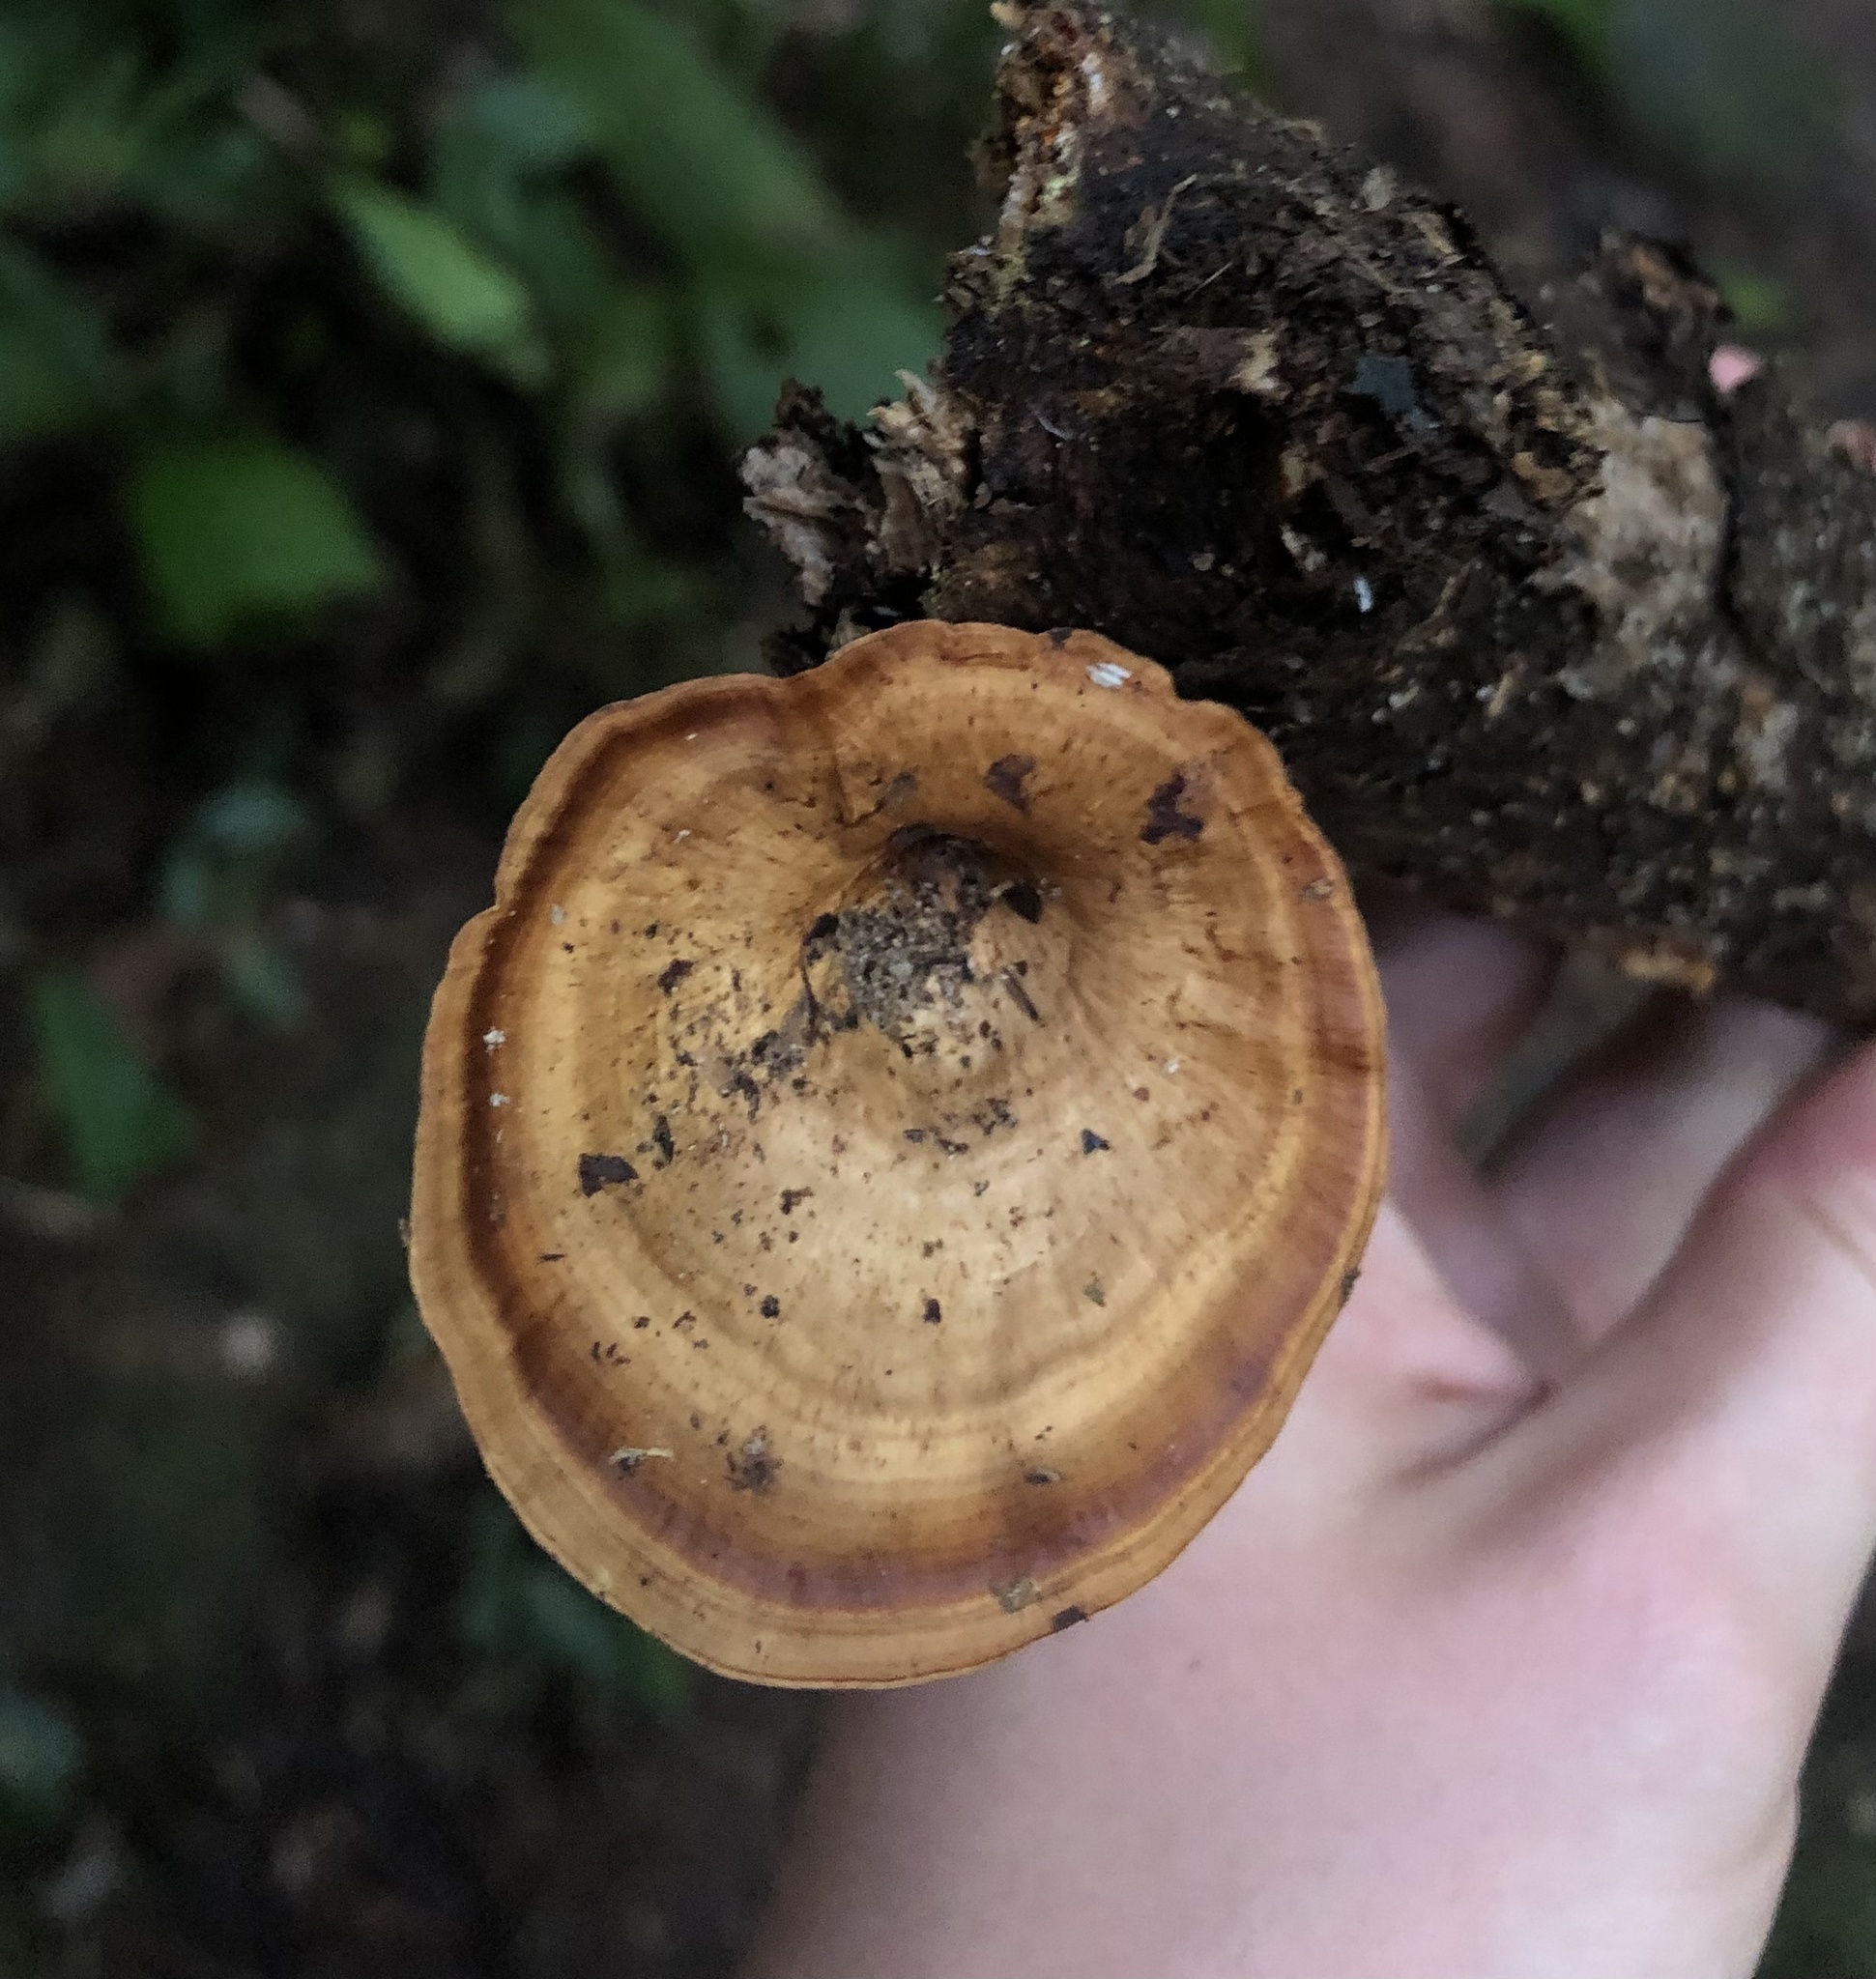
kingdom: Fungi
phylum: Basidiomycota
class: Agaricomycetes
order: Polyporales
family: Polyporaceae
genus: Microporus
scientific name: Microporus xanthopus
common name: Yellow-stemmed micropore
